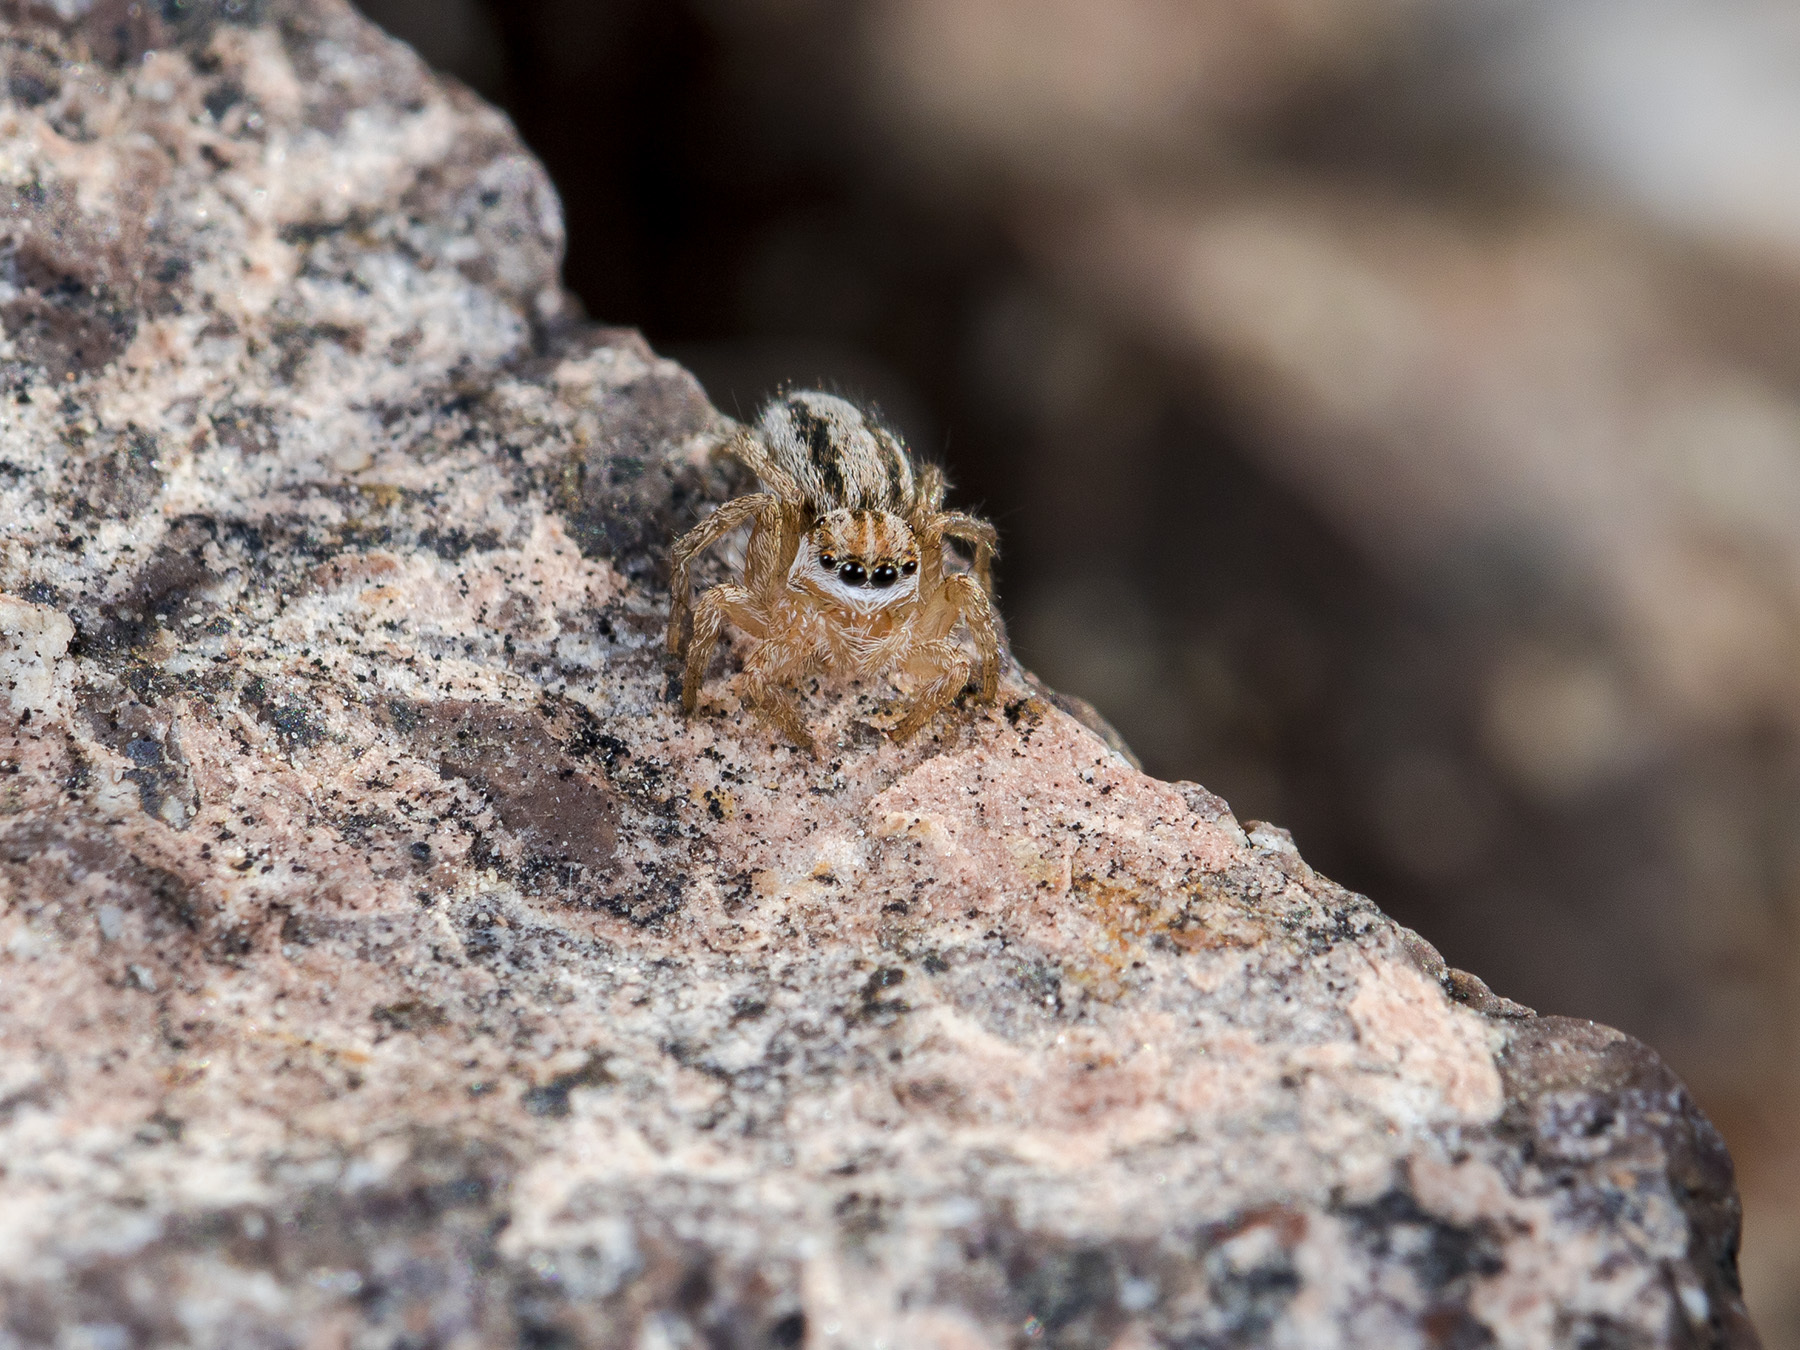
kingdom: Animalia
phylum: Arthropoda
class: Arachnida
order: Araneae
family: Salticidae
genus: Aelurillus
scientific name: Aelurillus m-nigrum
